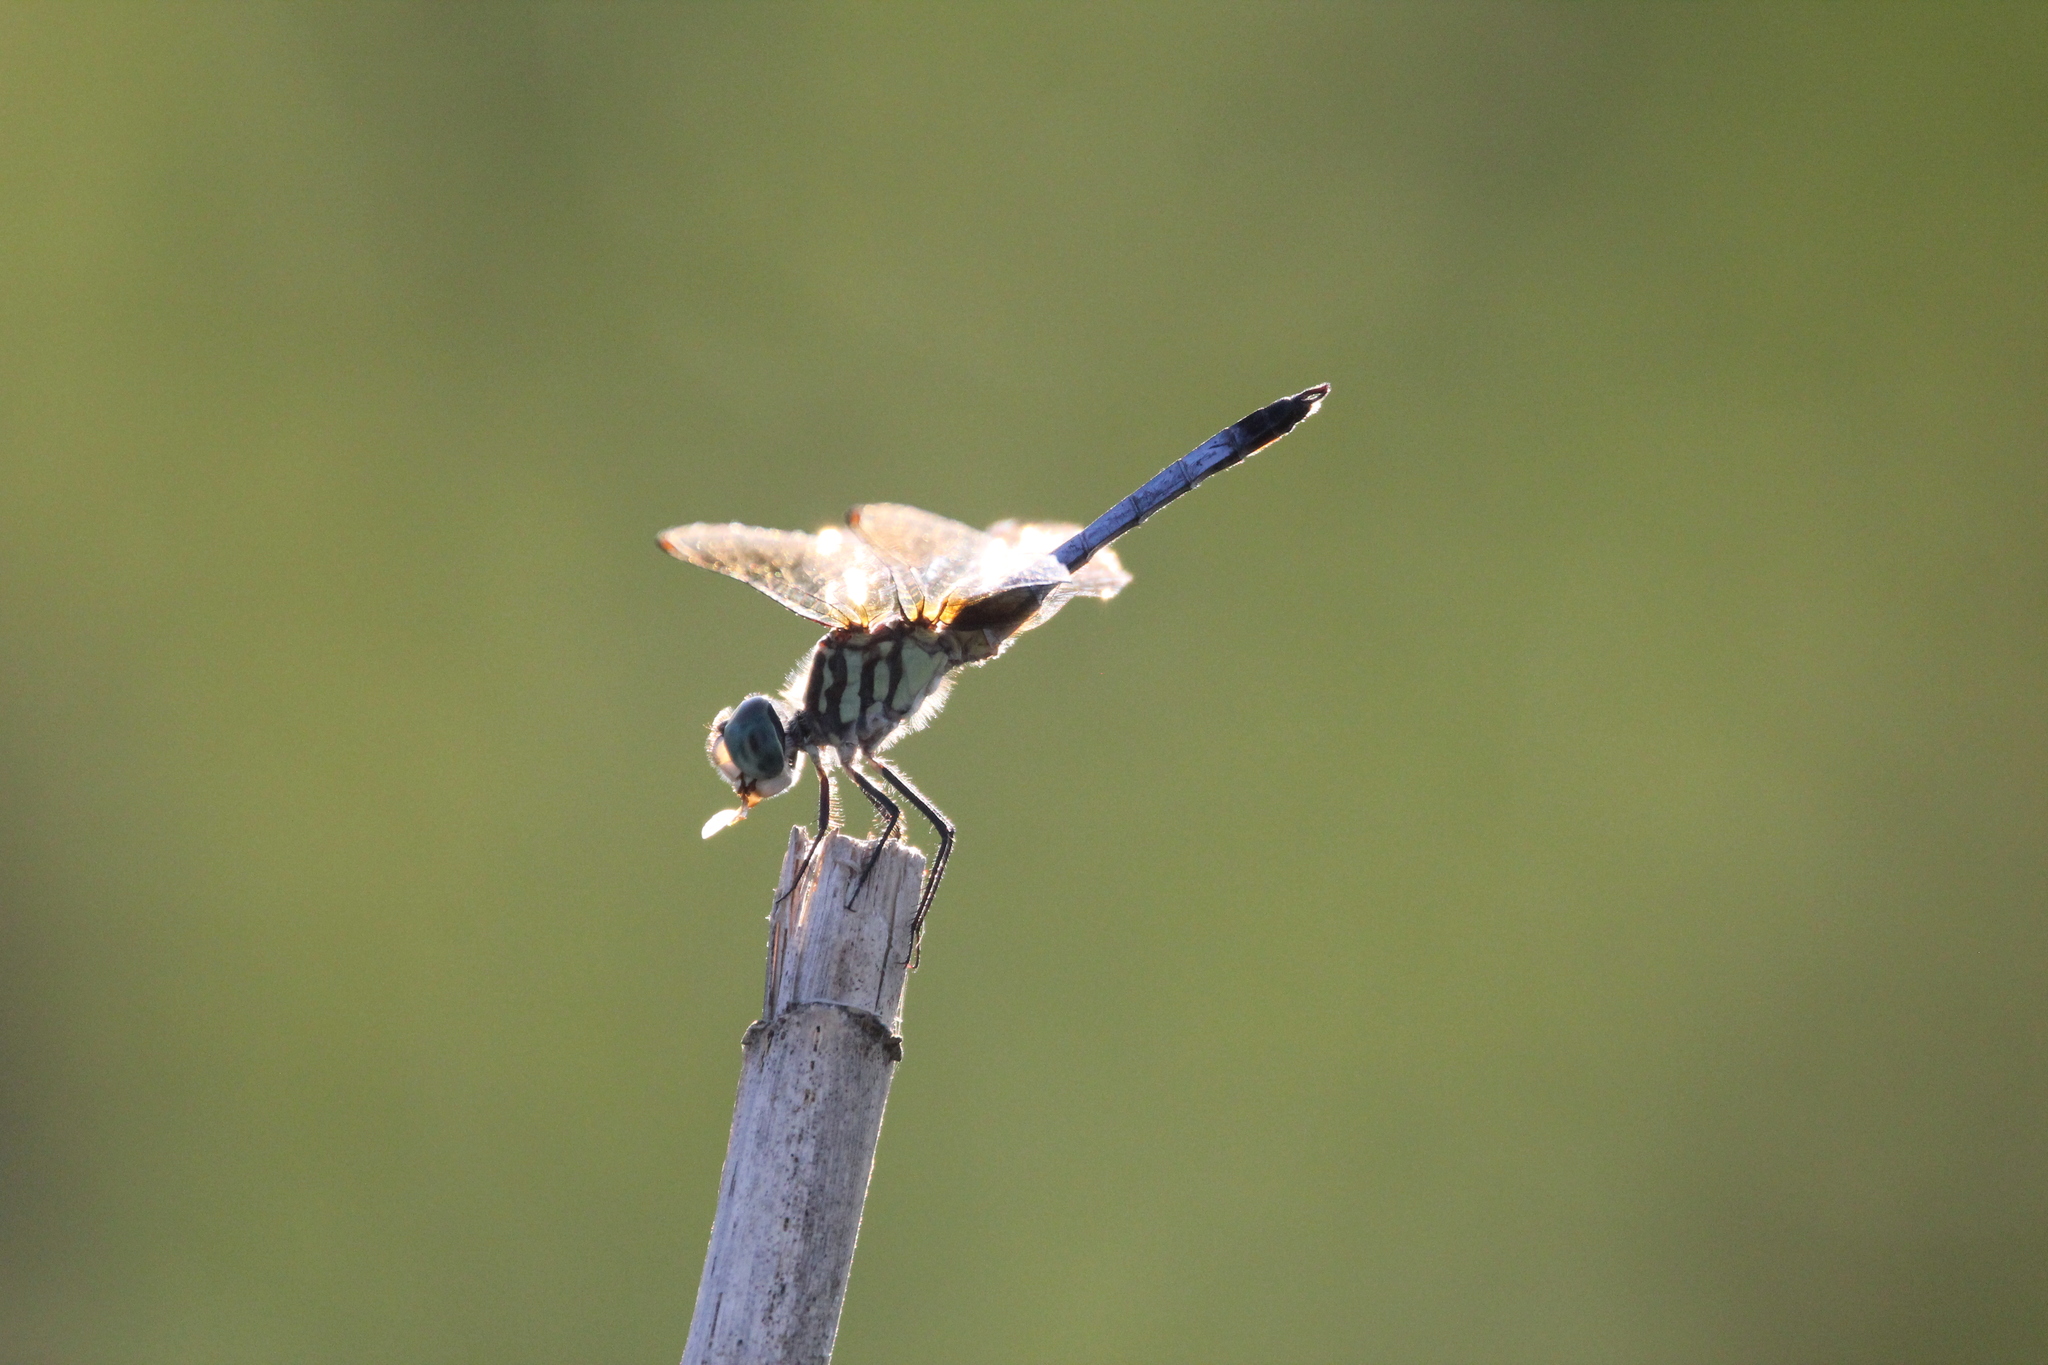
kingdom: Animalia
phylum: Arthropoda
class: Insecta
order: Odonata
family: Libellulidae
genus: Pachydiplax
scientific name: Pachydiplax longipennis
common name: Blue dasher
